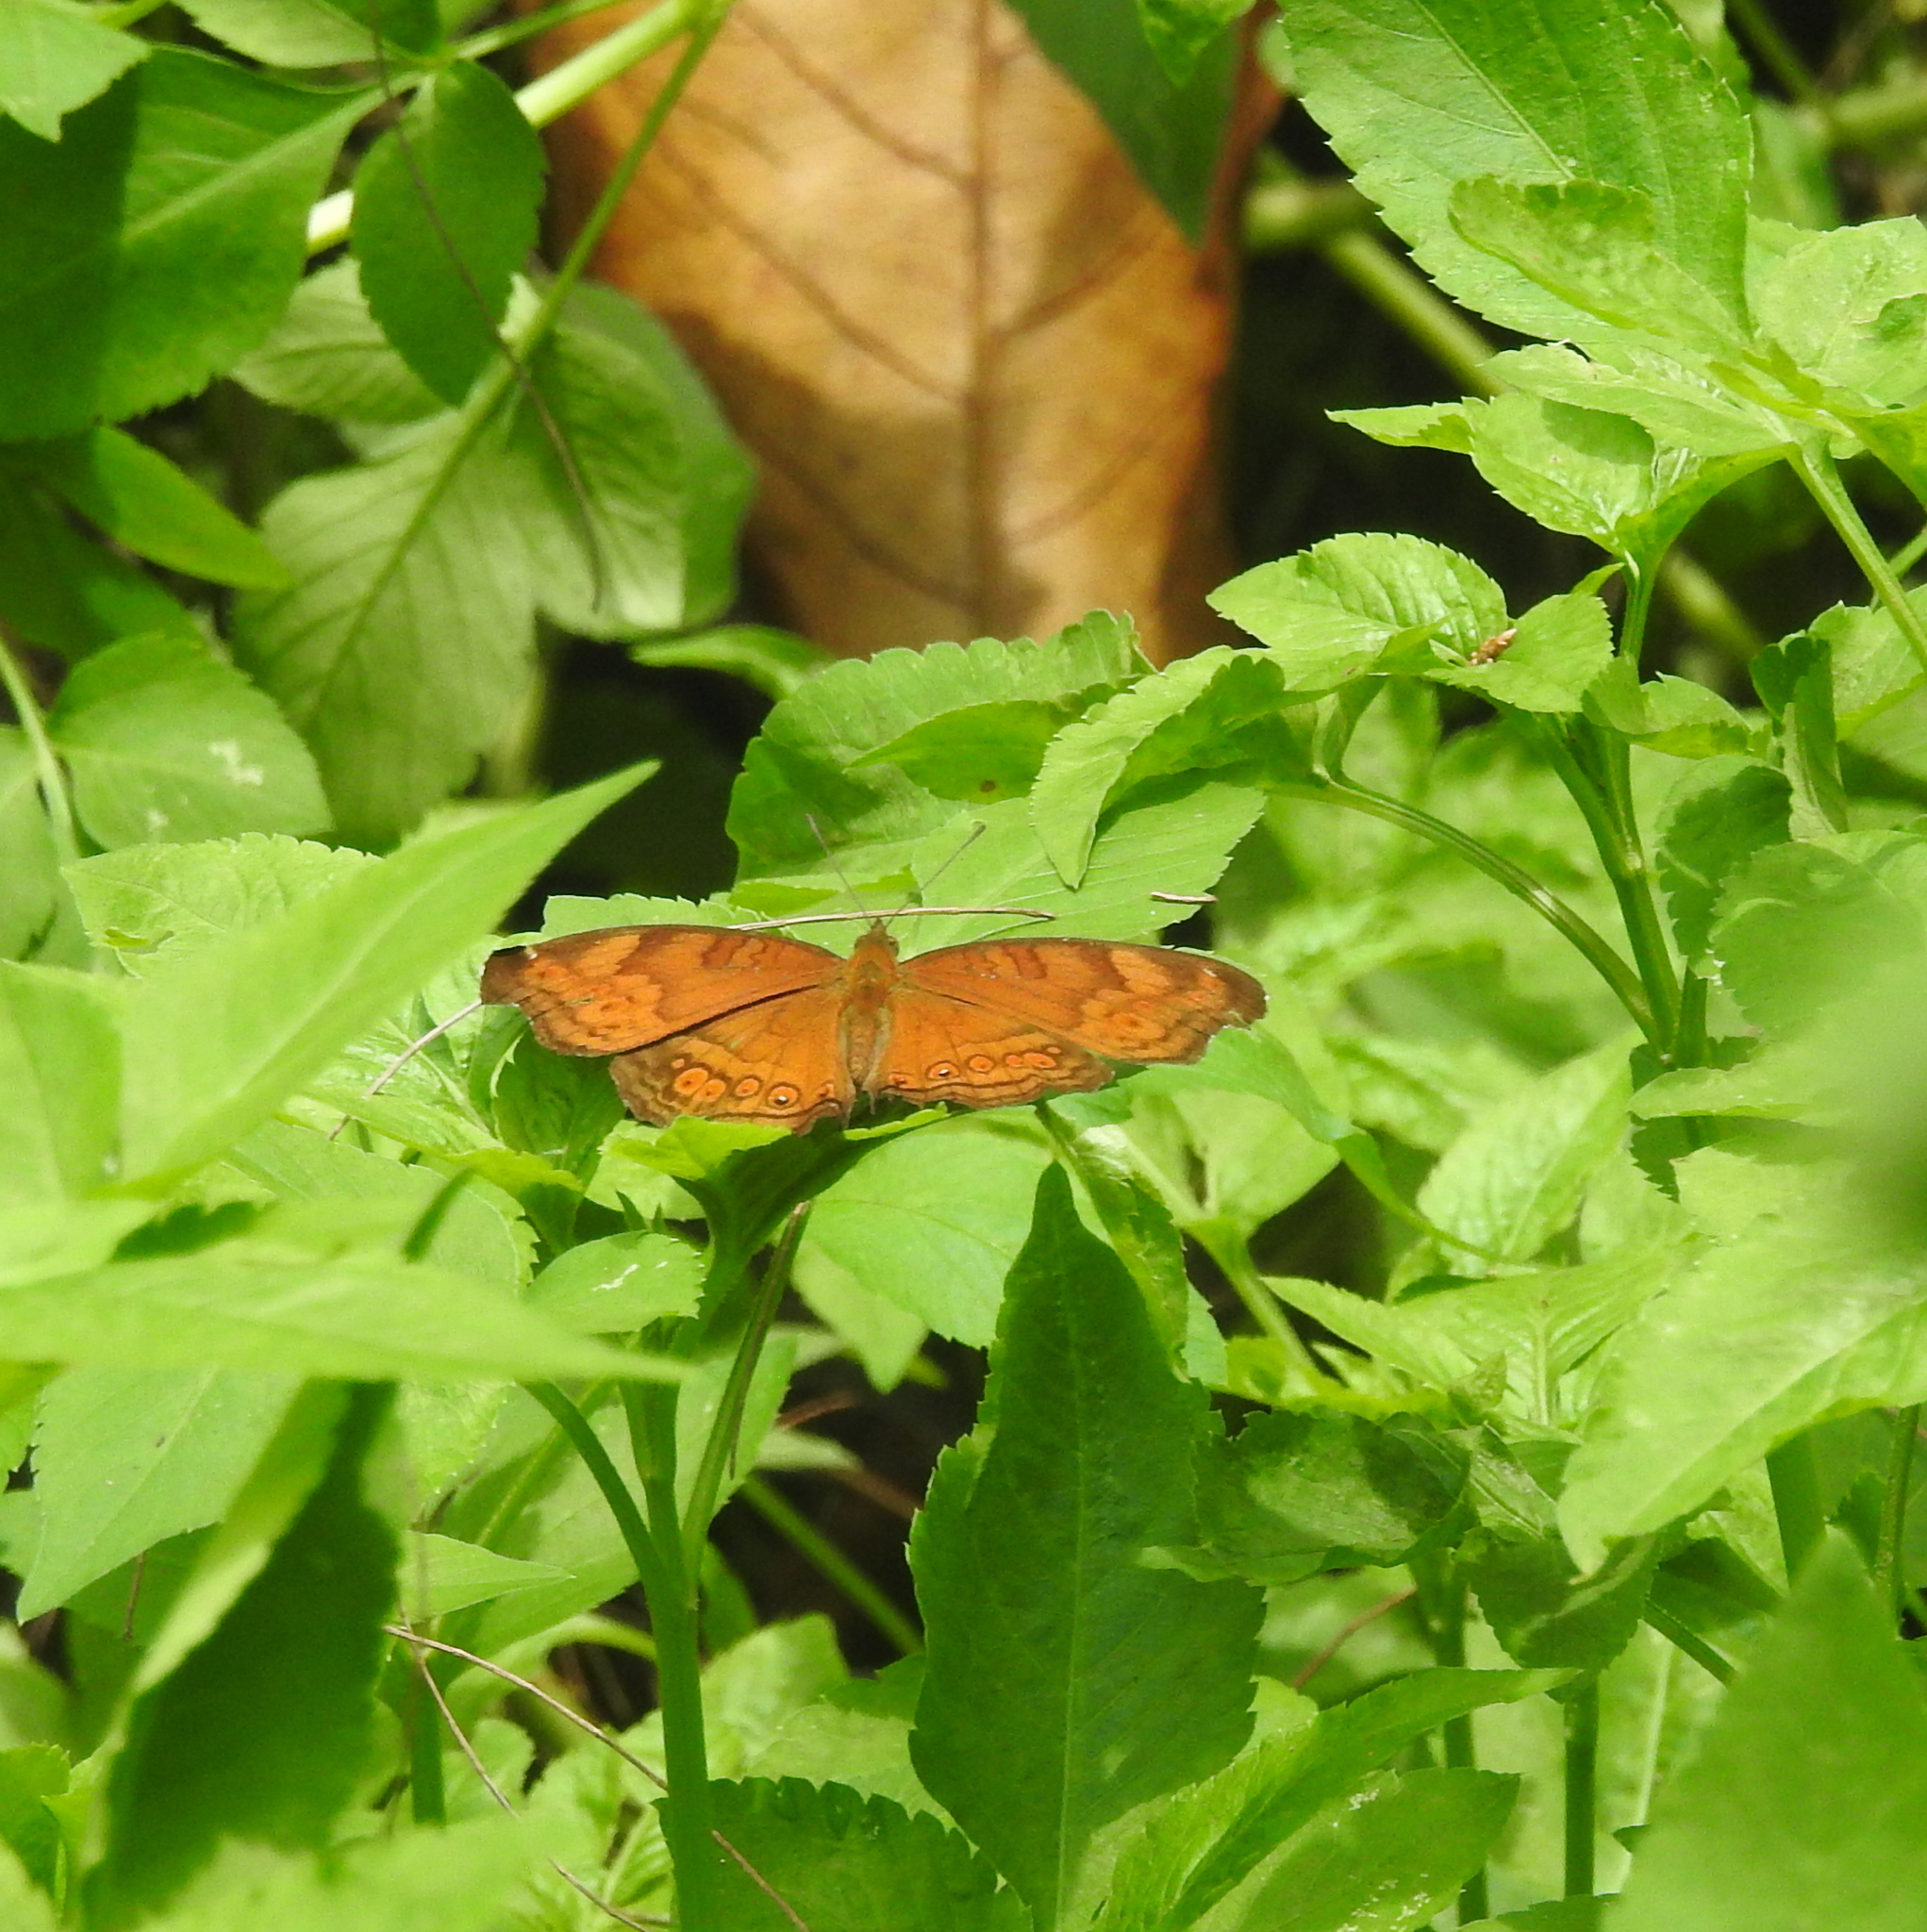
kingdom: Animalia
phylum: Arthropoda
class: Insecta
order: Lepidoptera
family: Nymphalidae
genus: Junonia
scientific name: Junonia hedonia
